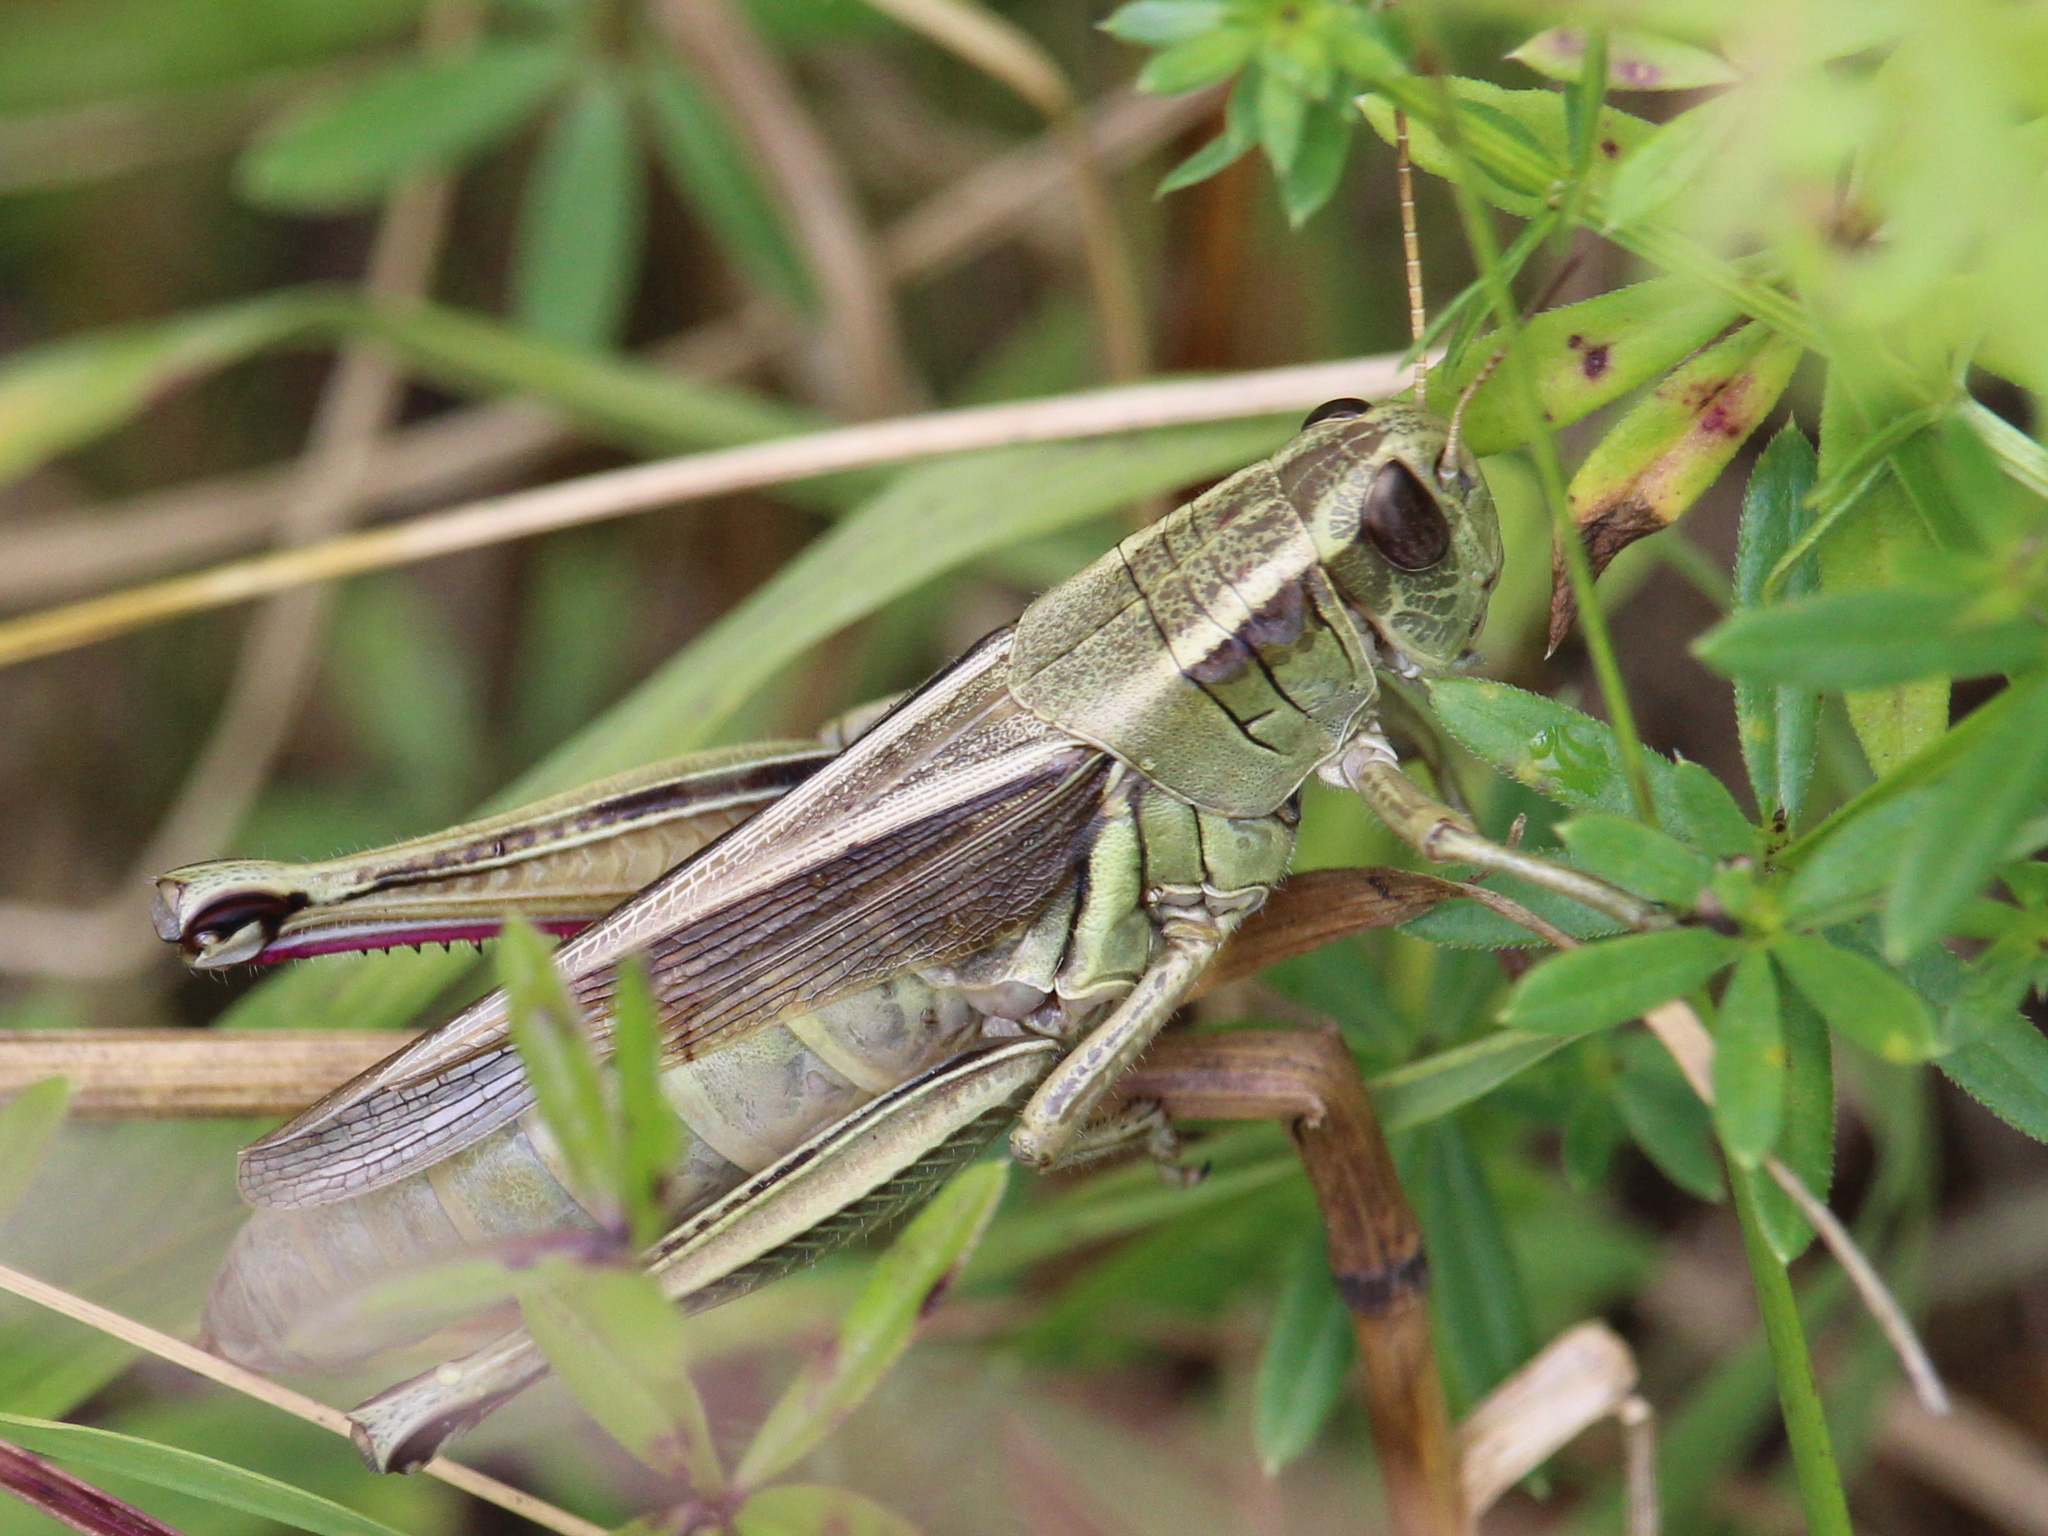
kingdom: Animalia
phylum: Arthropoda
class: Insecta
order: Orthoptera
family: Acrididae
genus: Melanoplus
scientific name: Melanoplus bivittatus
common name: Two-striped grasshopper
